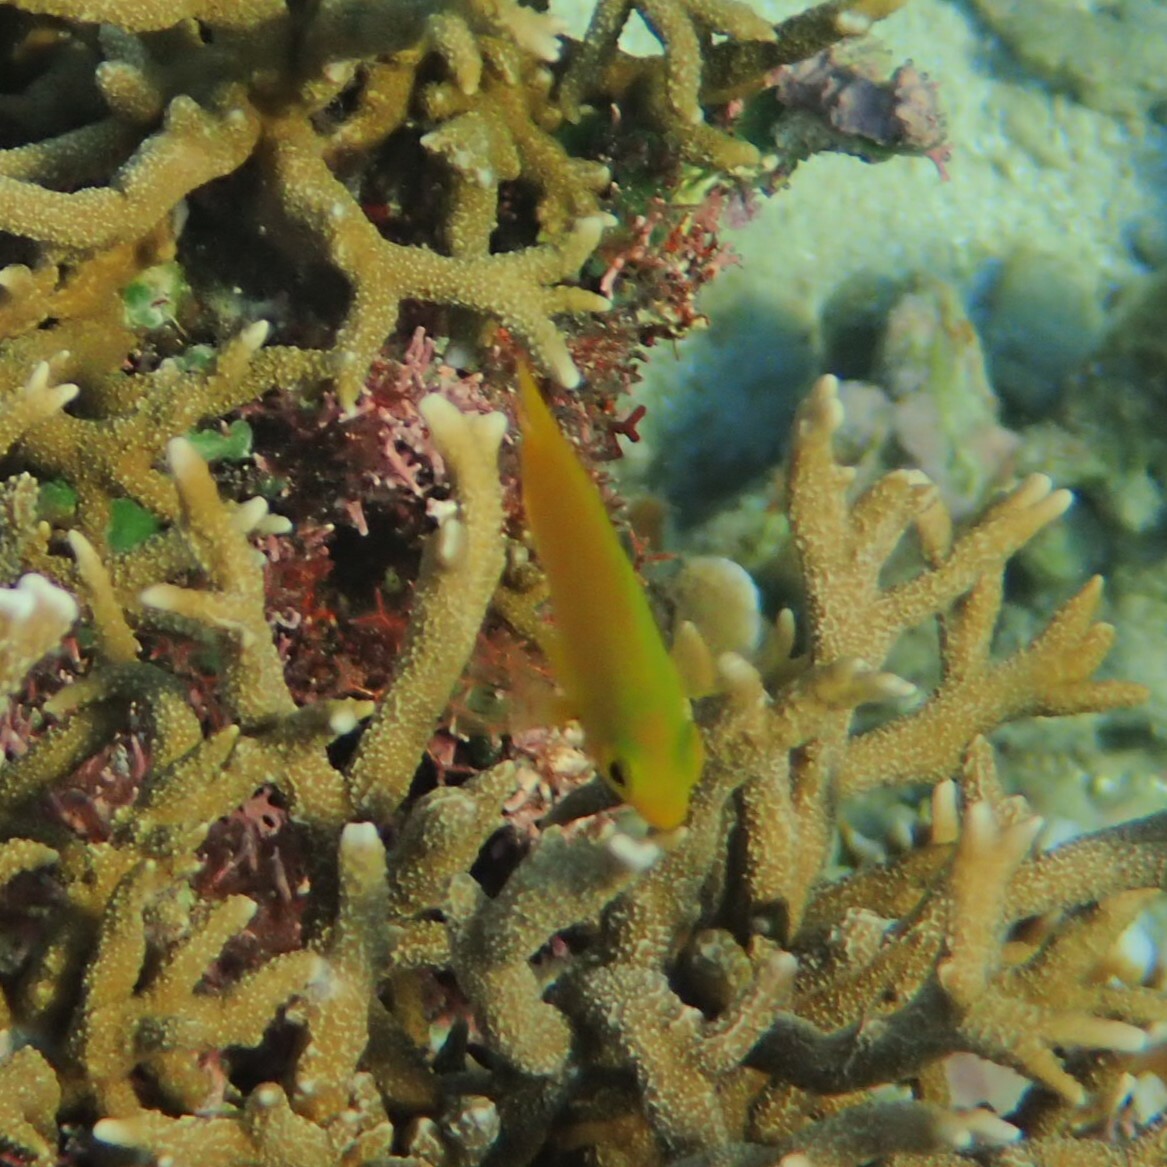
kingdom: Animalia
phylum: Chordata
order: Perciformes
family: Pomacentridae
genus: Pomacentrus
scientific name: Pomacentrus moluccensis
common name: Lemon damsel
